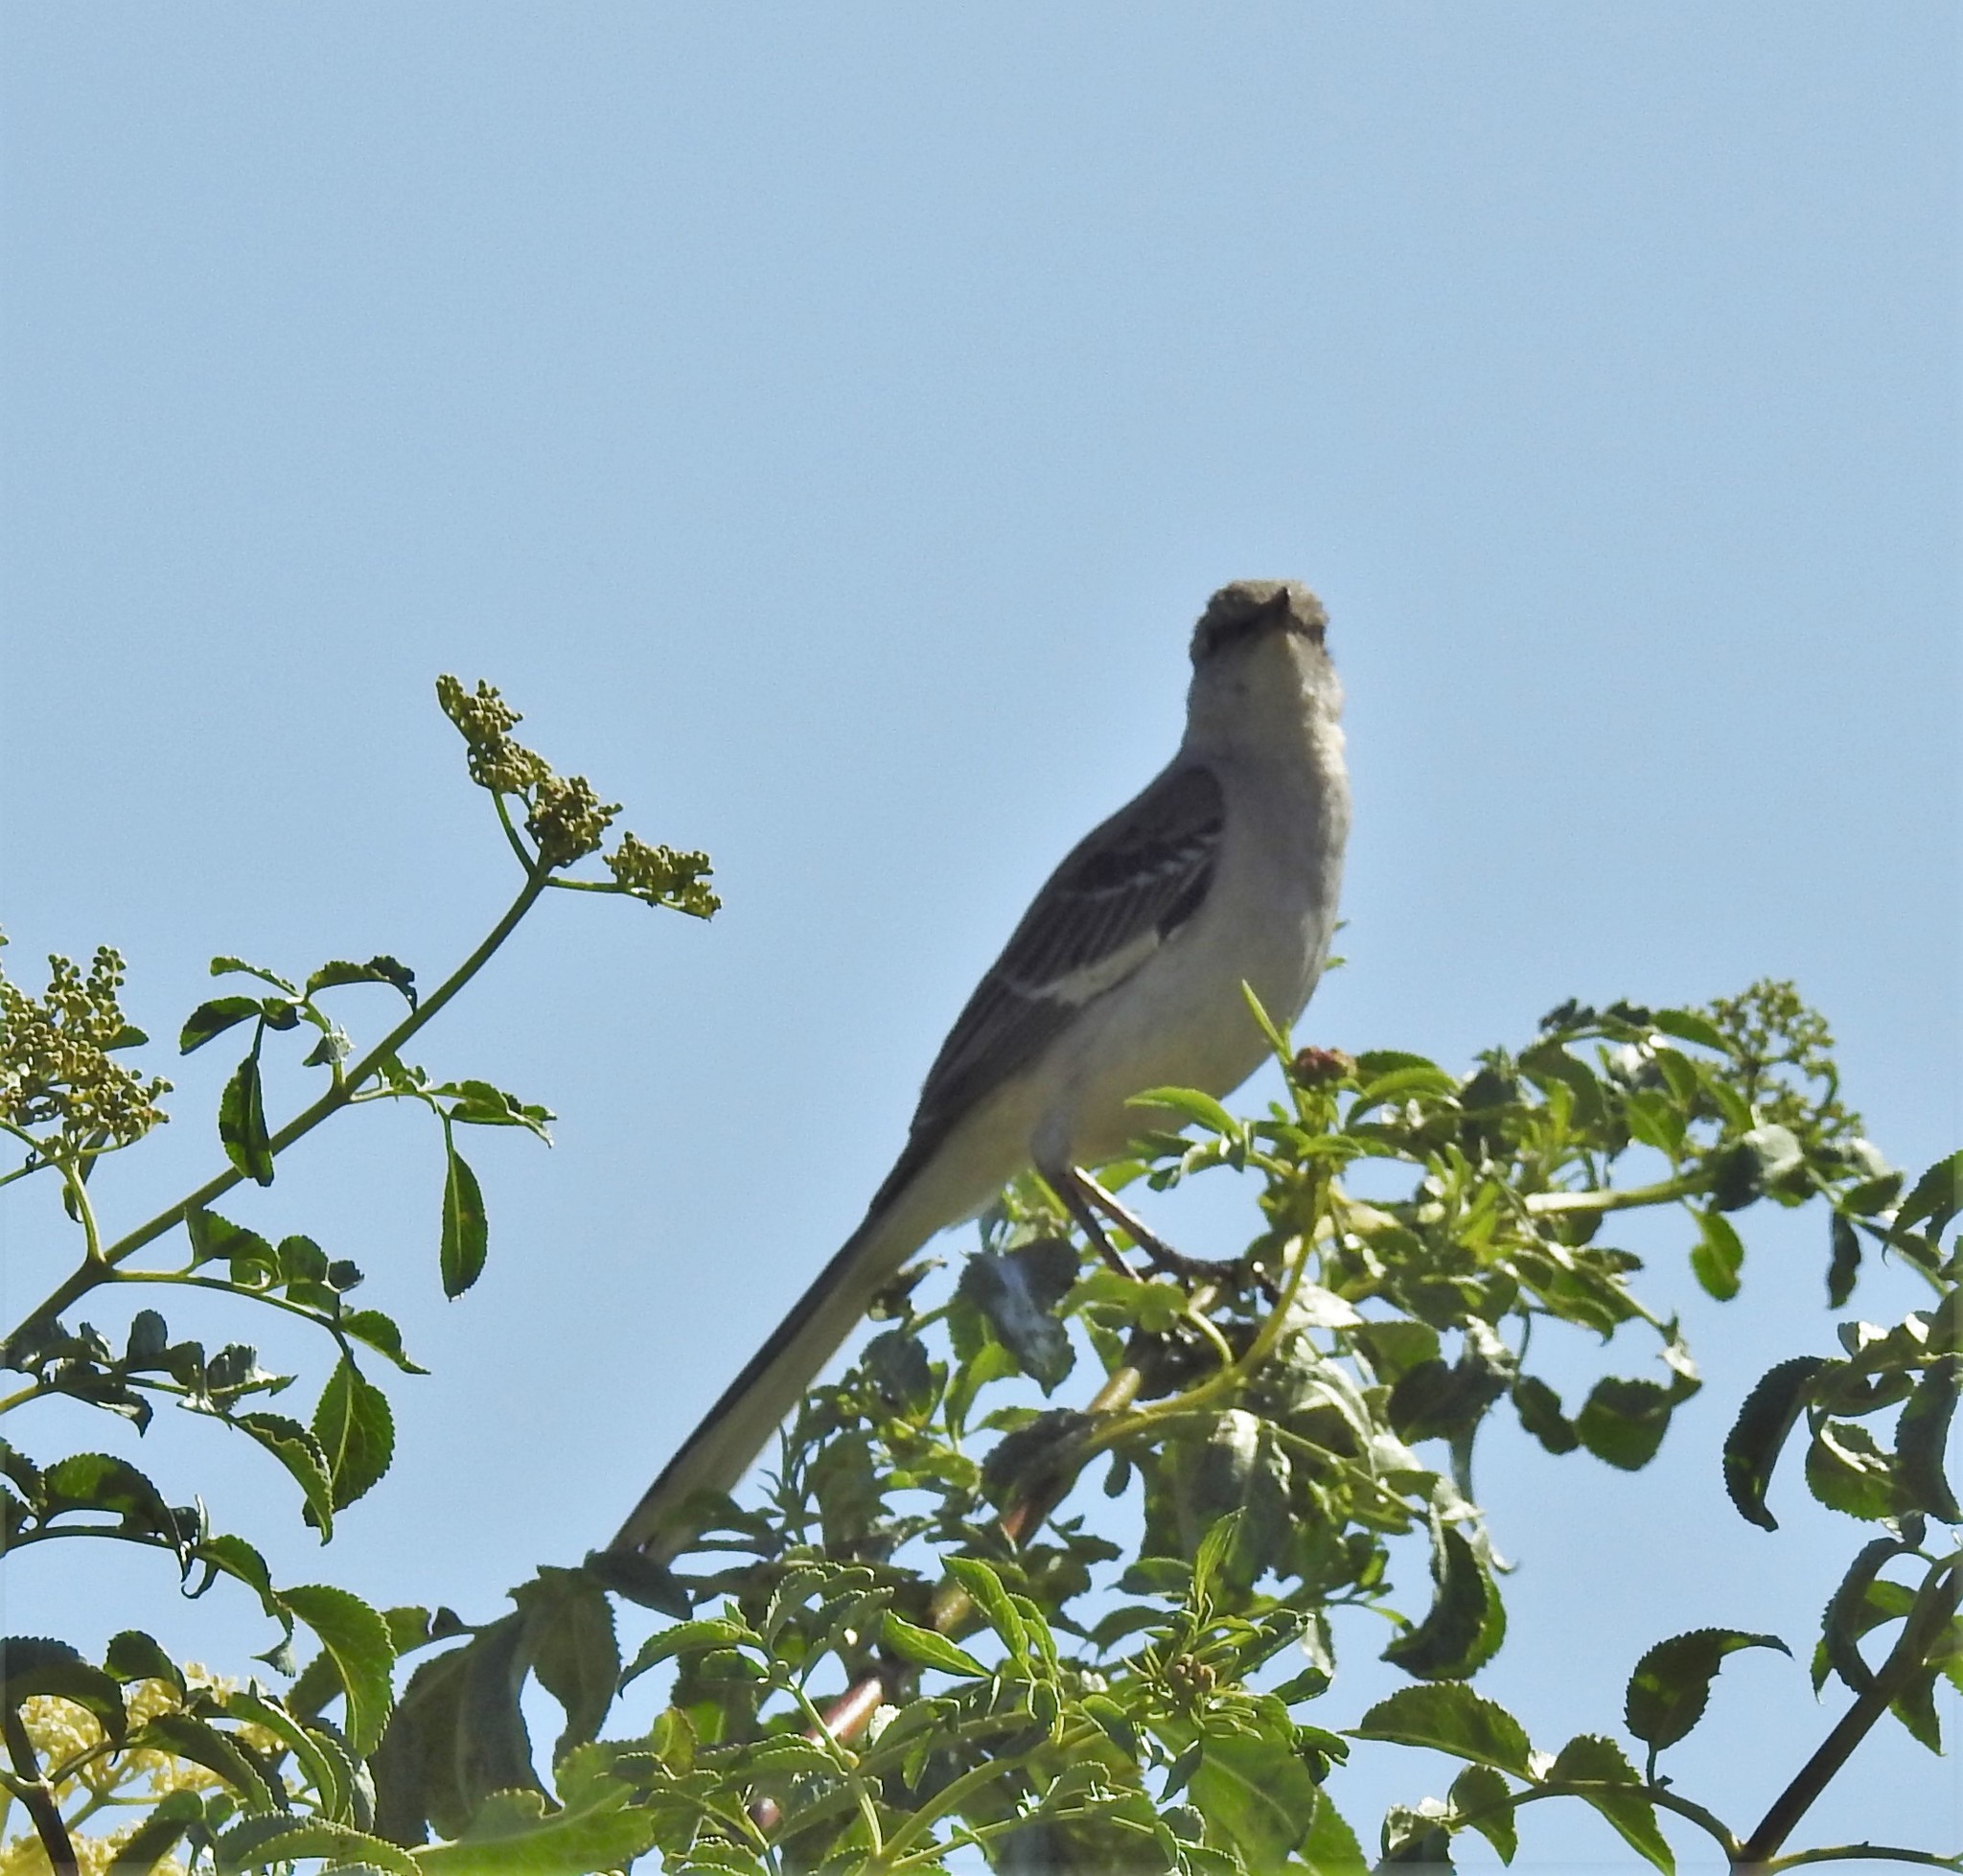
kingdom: Animalia
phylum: Chordata
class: Aves
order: Passeriformes
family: Mimidae
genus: Mimus
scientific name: Mimus polyglottos
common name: Northern mockingbird
